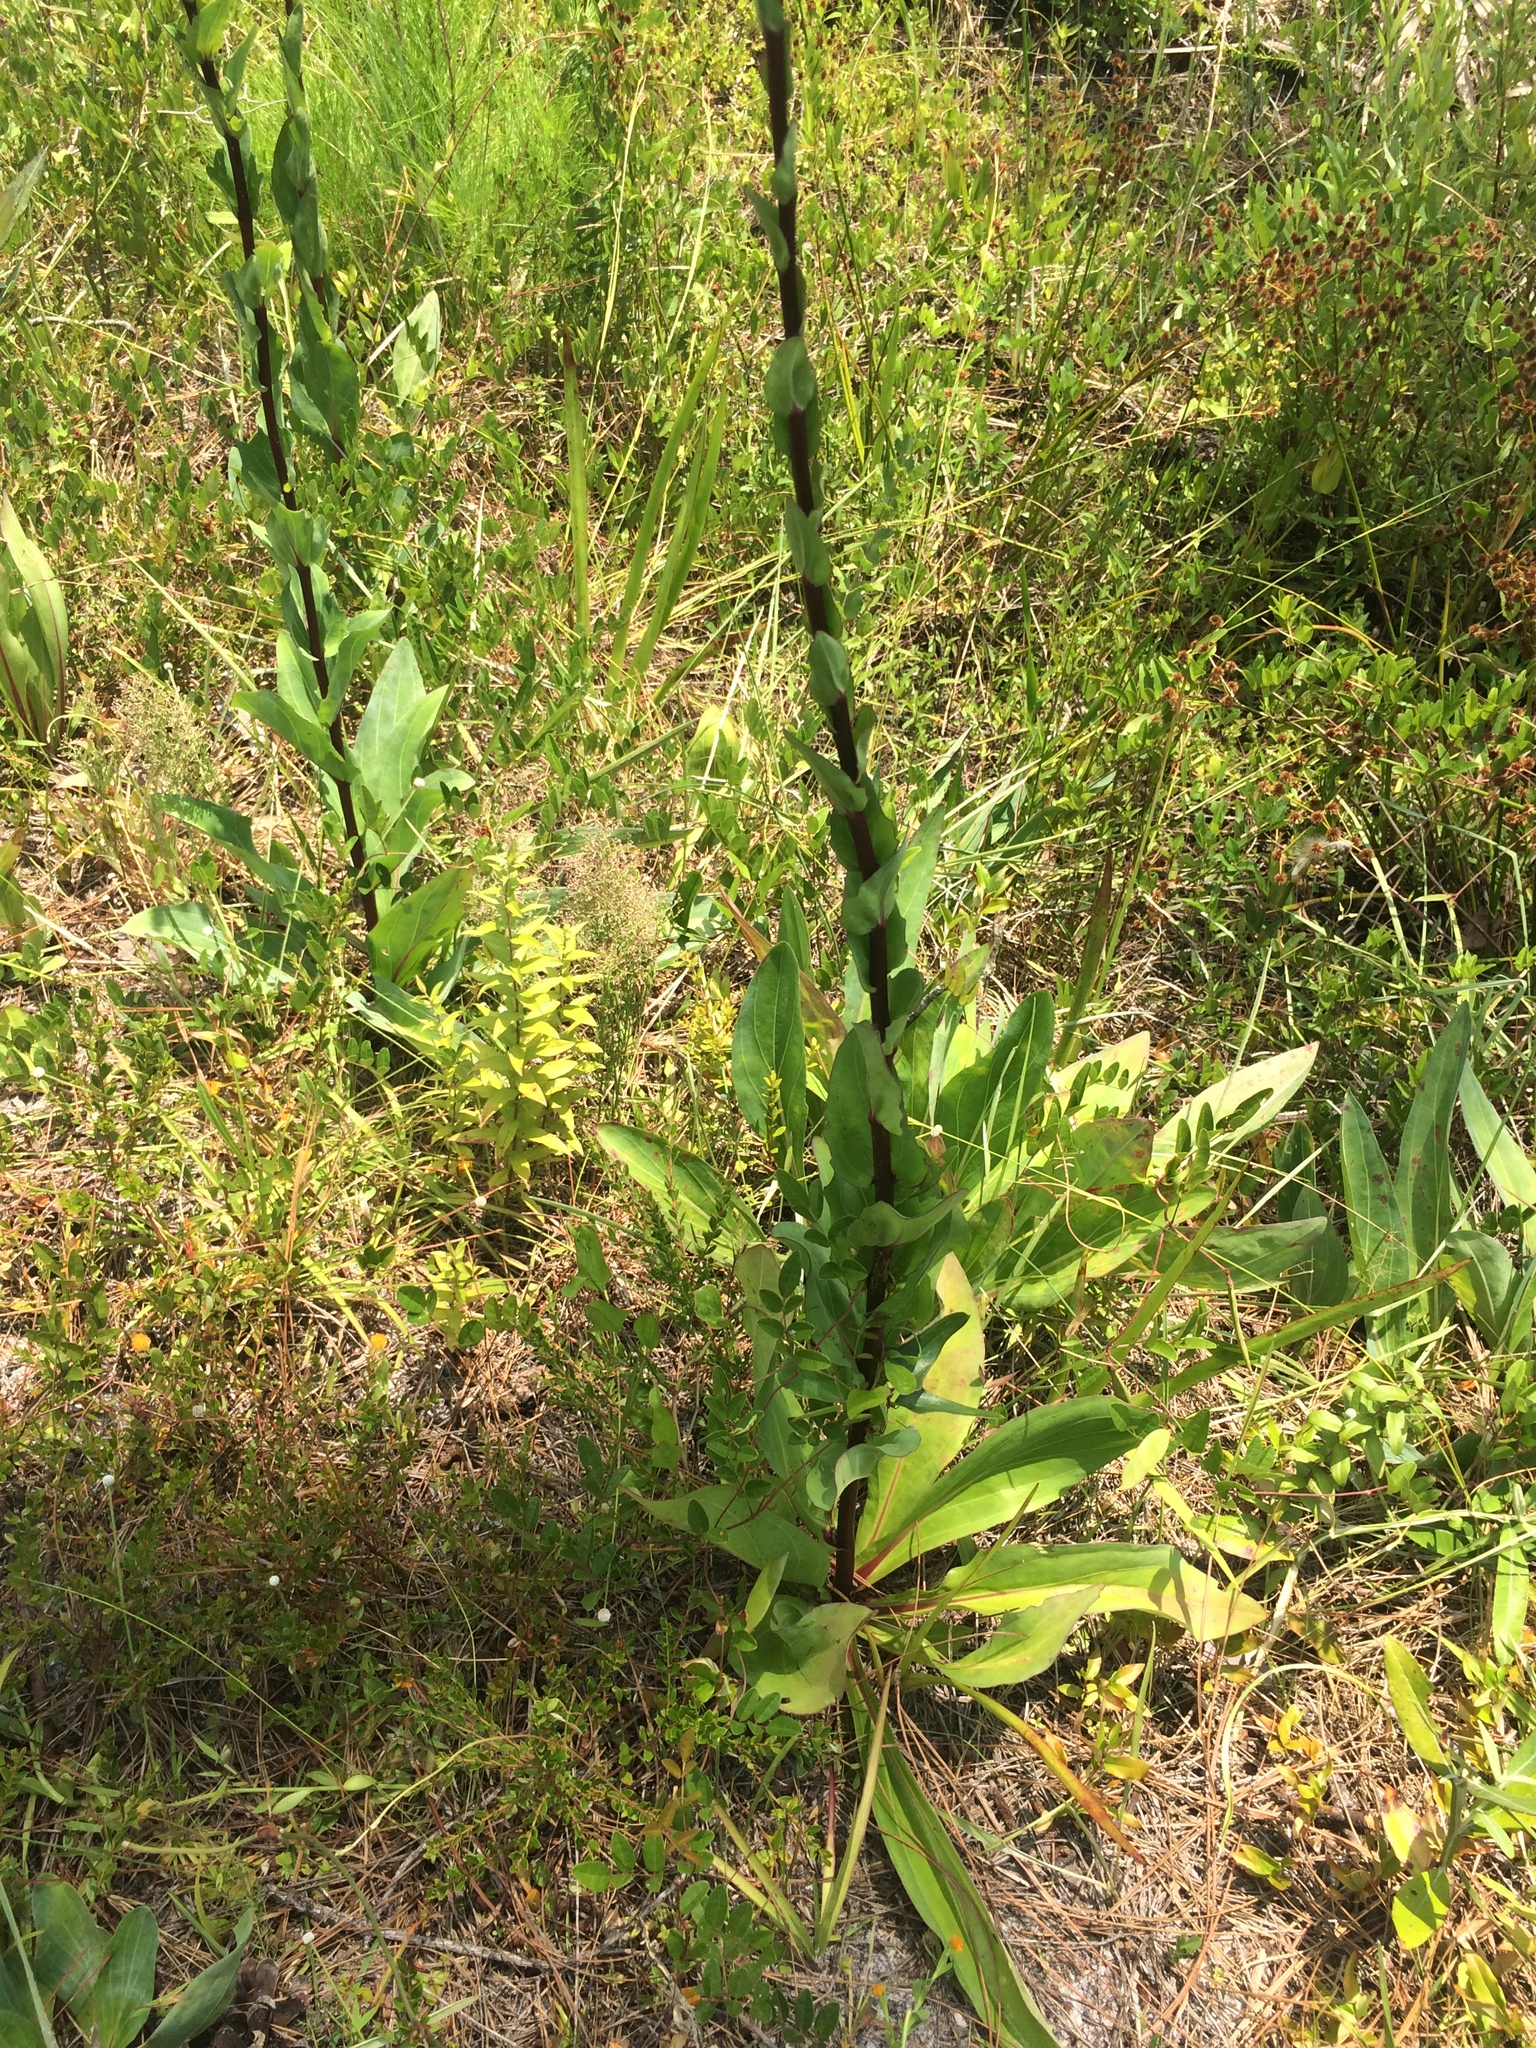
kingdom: Plantae
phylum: Tracheophyta
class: Magnoliopsida
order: Asterales
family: Asteraceae
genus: Pterocaulon
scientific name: Pterocaulon pycnostachyum
